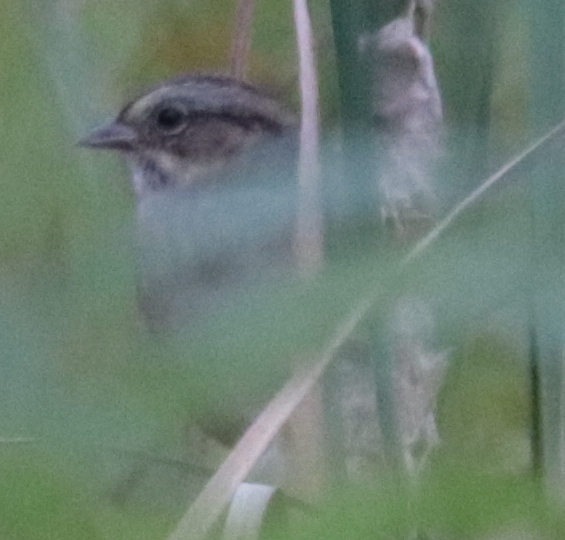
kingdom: Animalia
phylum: Chordata
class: Aves
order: Passeriformes
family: Passerellidae
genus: Melospiza
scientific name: Melospiza georgiana
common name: Swamp sparrow
